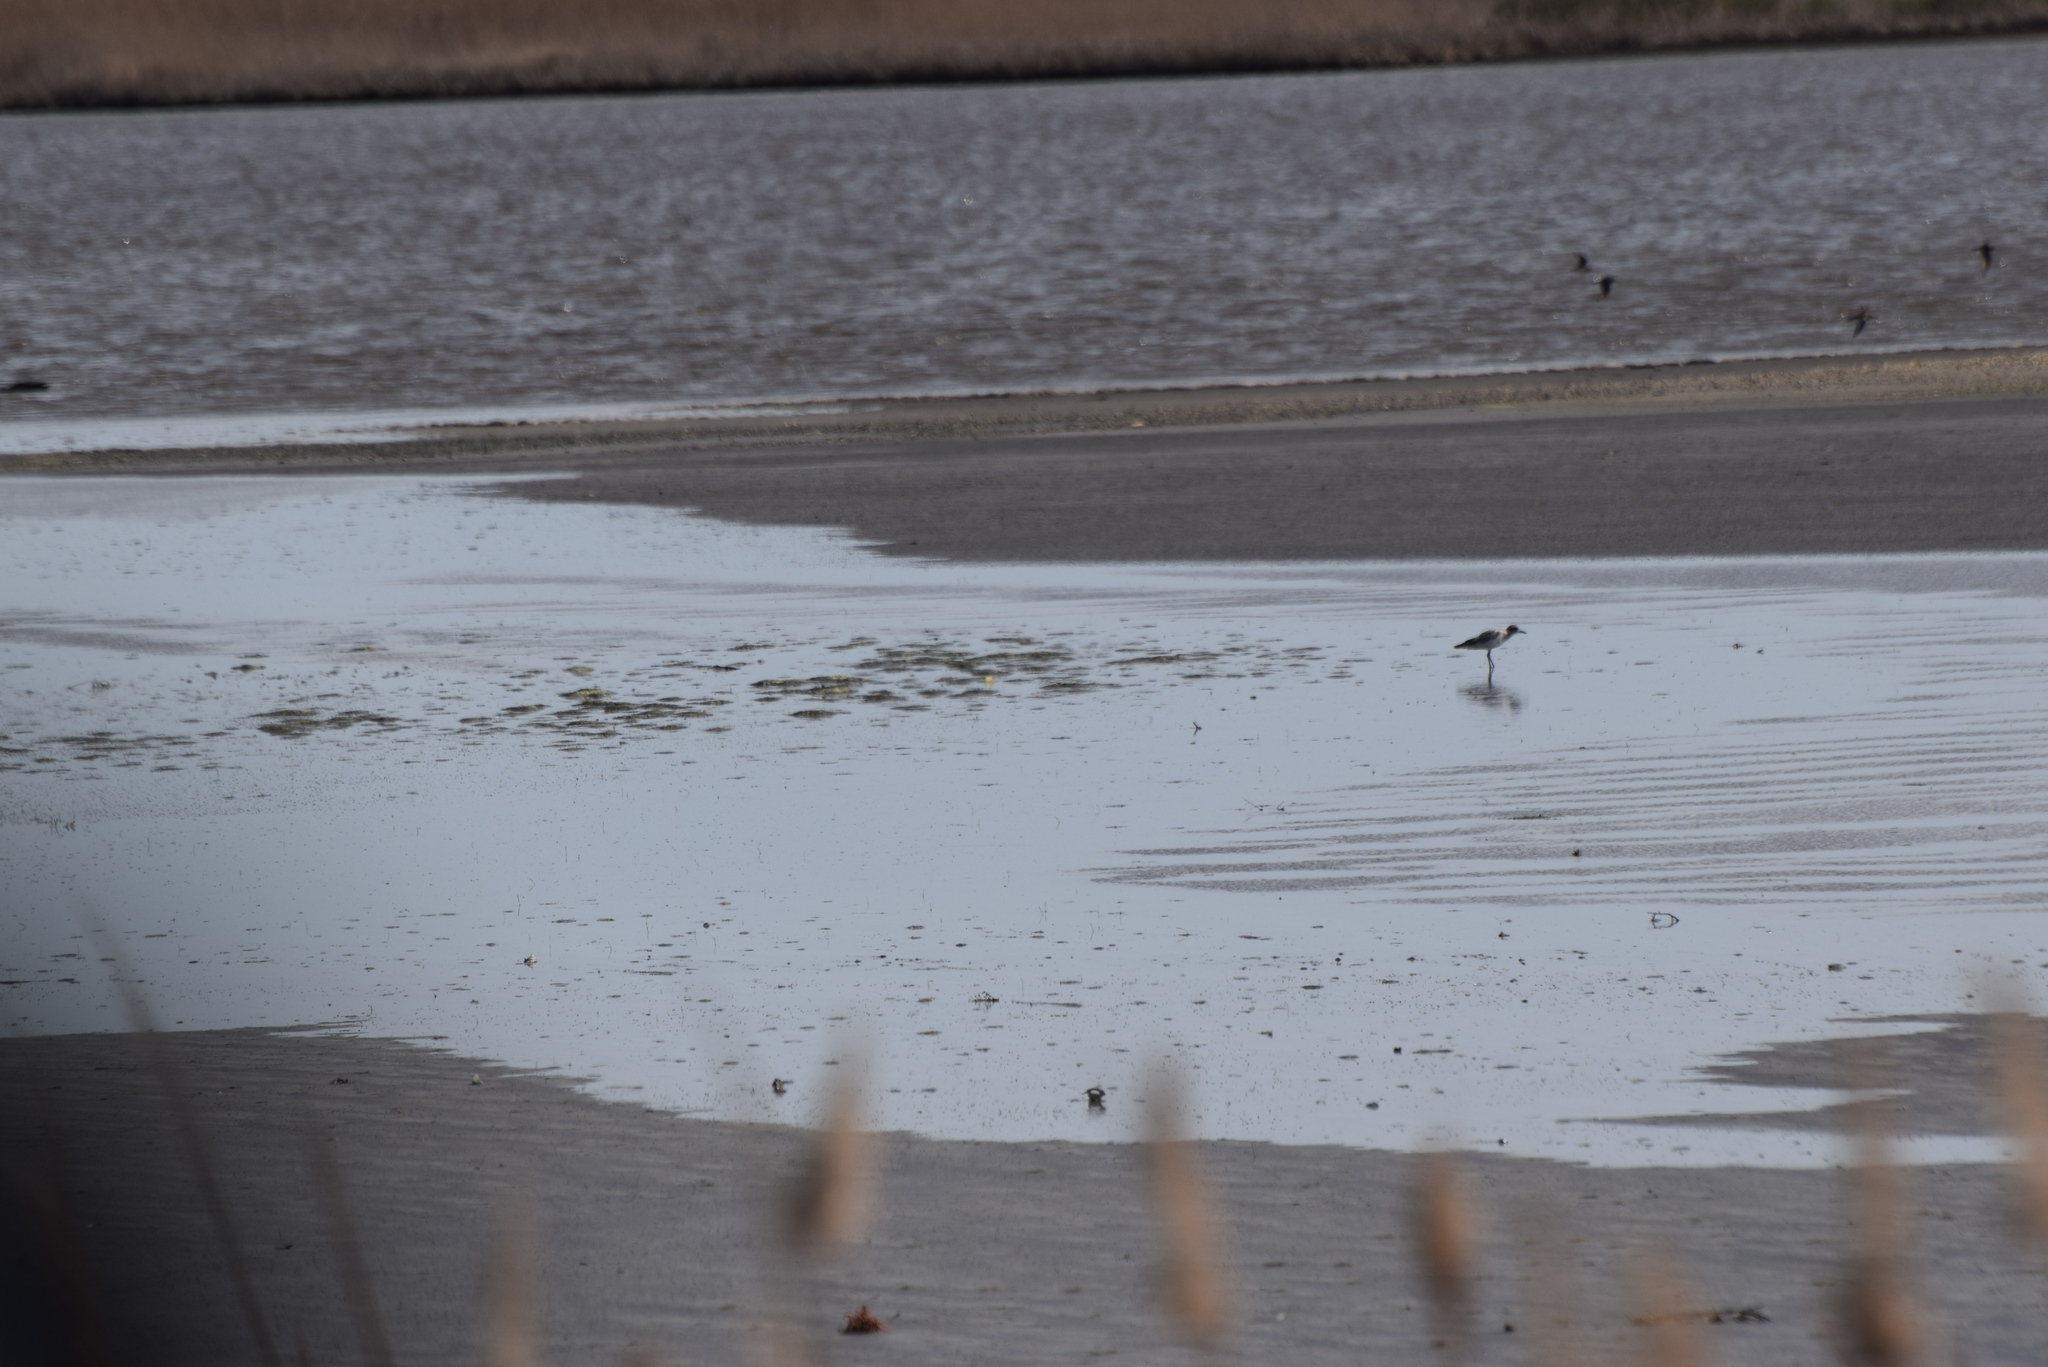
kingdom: Animalia
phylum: Chordata
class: Aves
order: Charadriiformes
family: Charadriidae
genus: Pluvialis
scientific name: Pluvialis squatarola
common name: Grey plover
